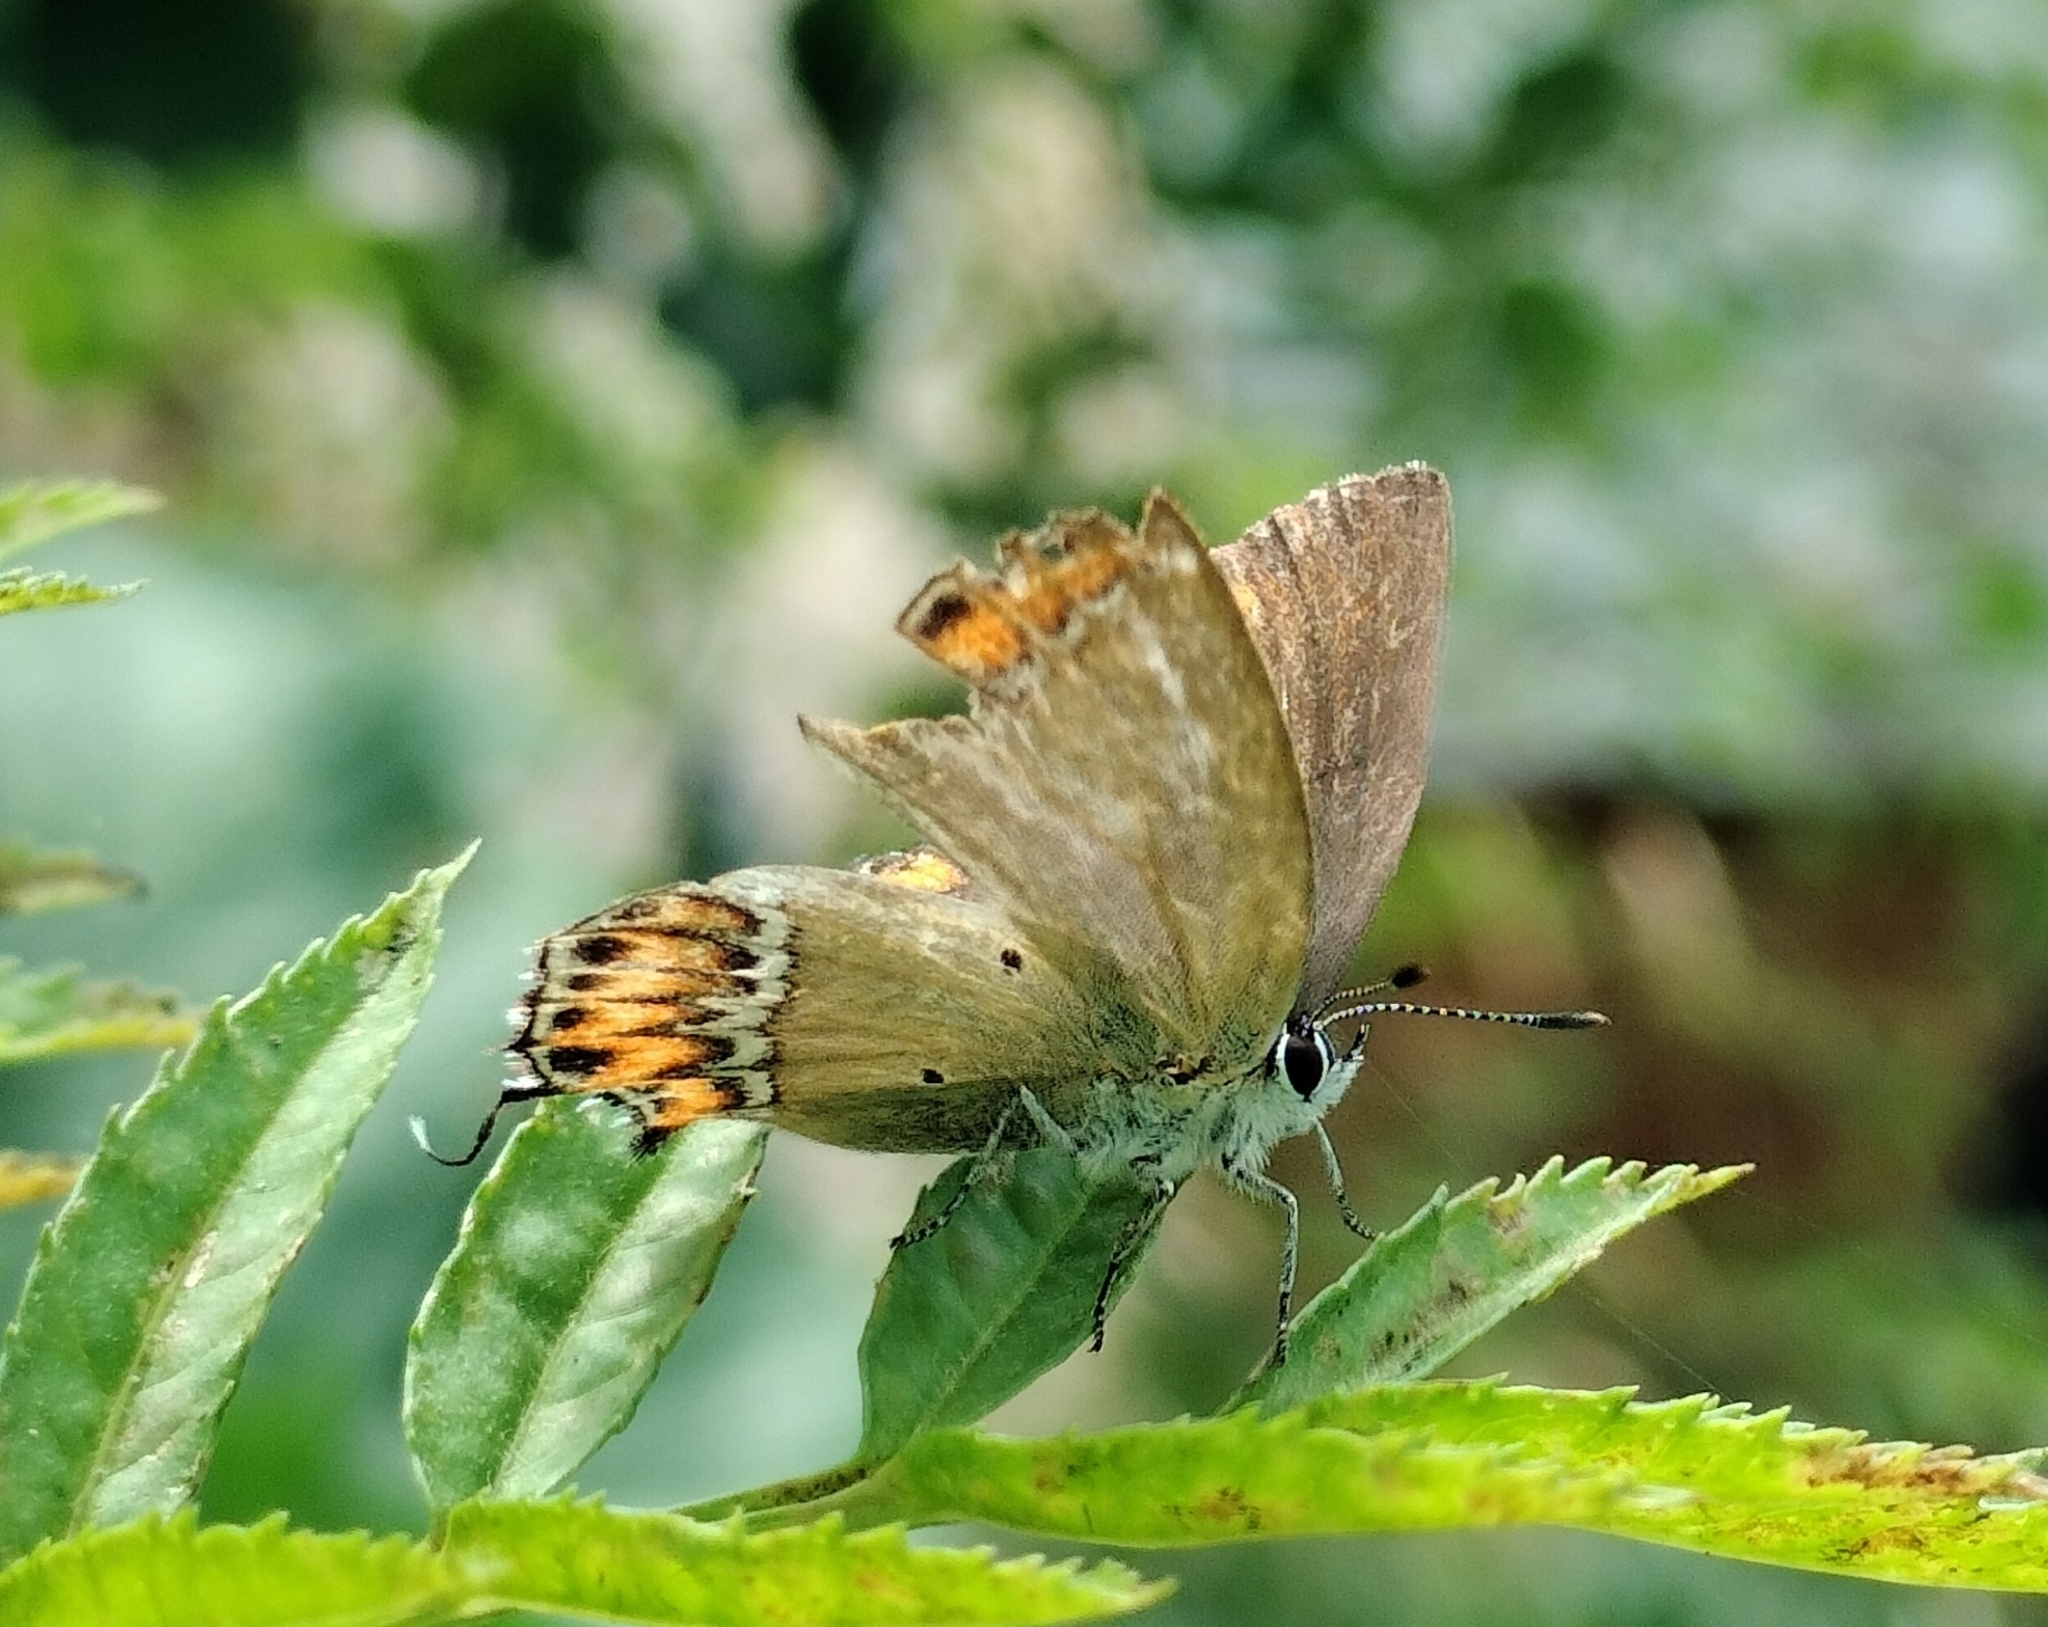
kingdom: Animalia
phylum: Arthropoda
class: Insecta
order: Lepidoptera
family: Lycaenidae
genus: Heliophorus
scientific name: Heliophorus sena
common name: Sorrel sapphire
